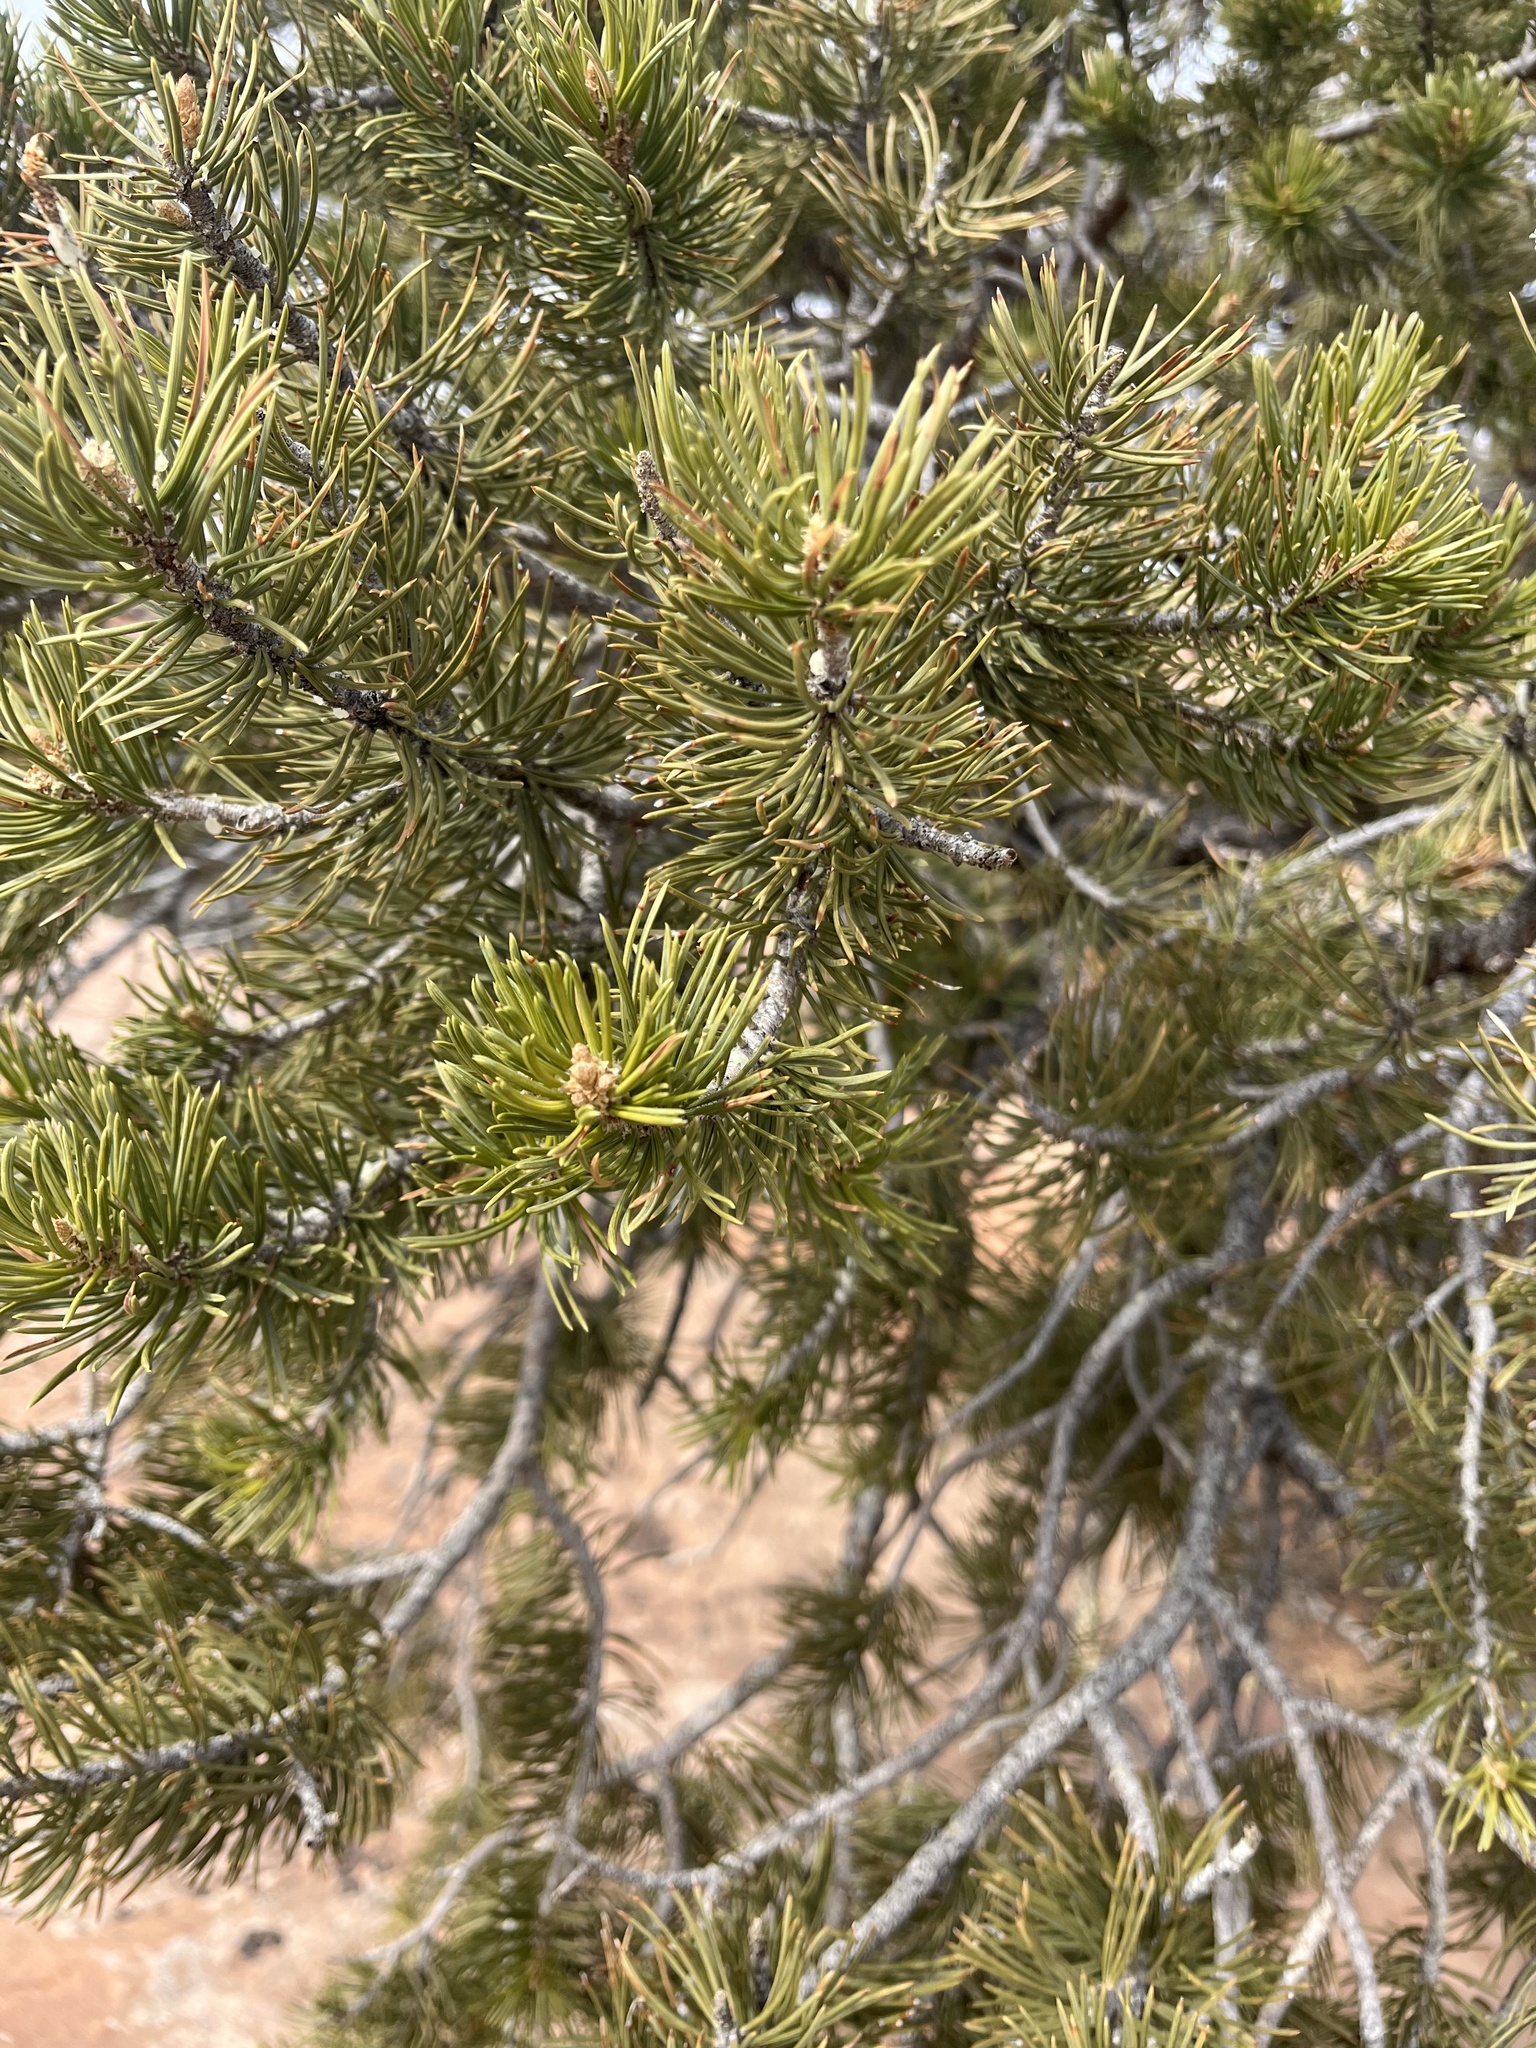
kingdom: Plantae
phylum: Tracheophyta
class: Pinopsida
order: Pinales
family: Pinaceae
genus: Pinus
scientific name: Pinus edulis
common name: Colorado pinyon
